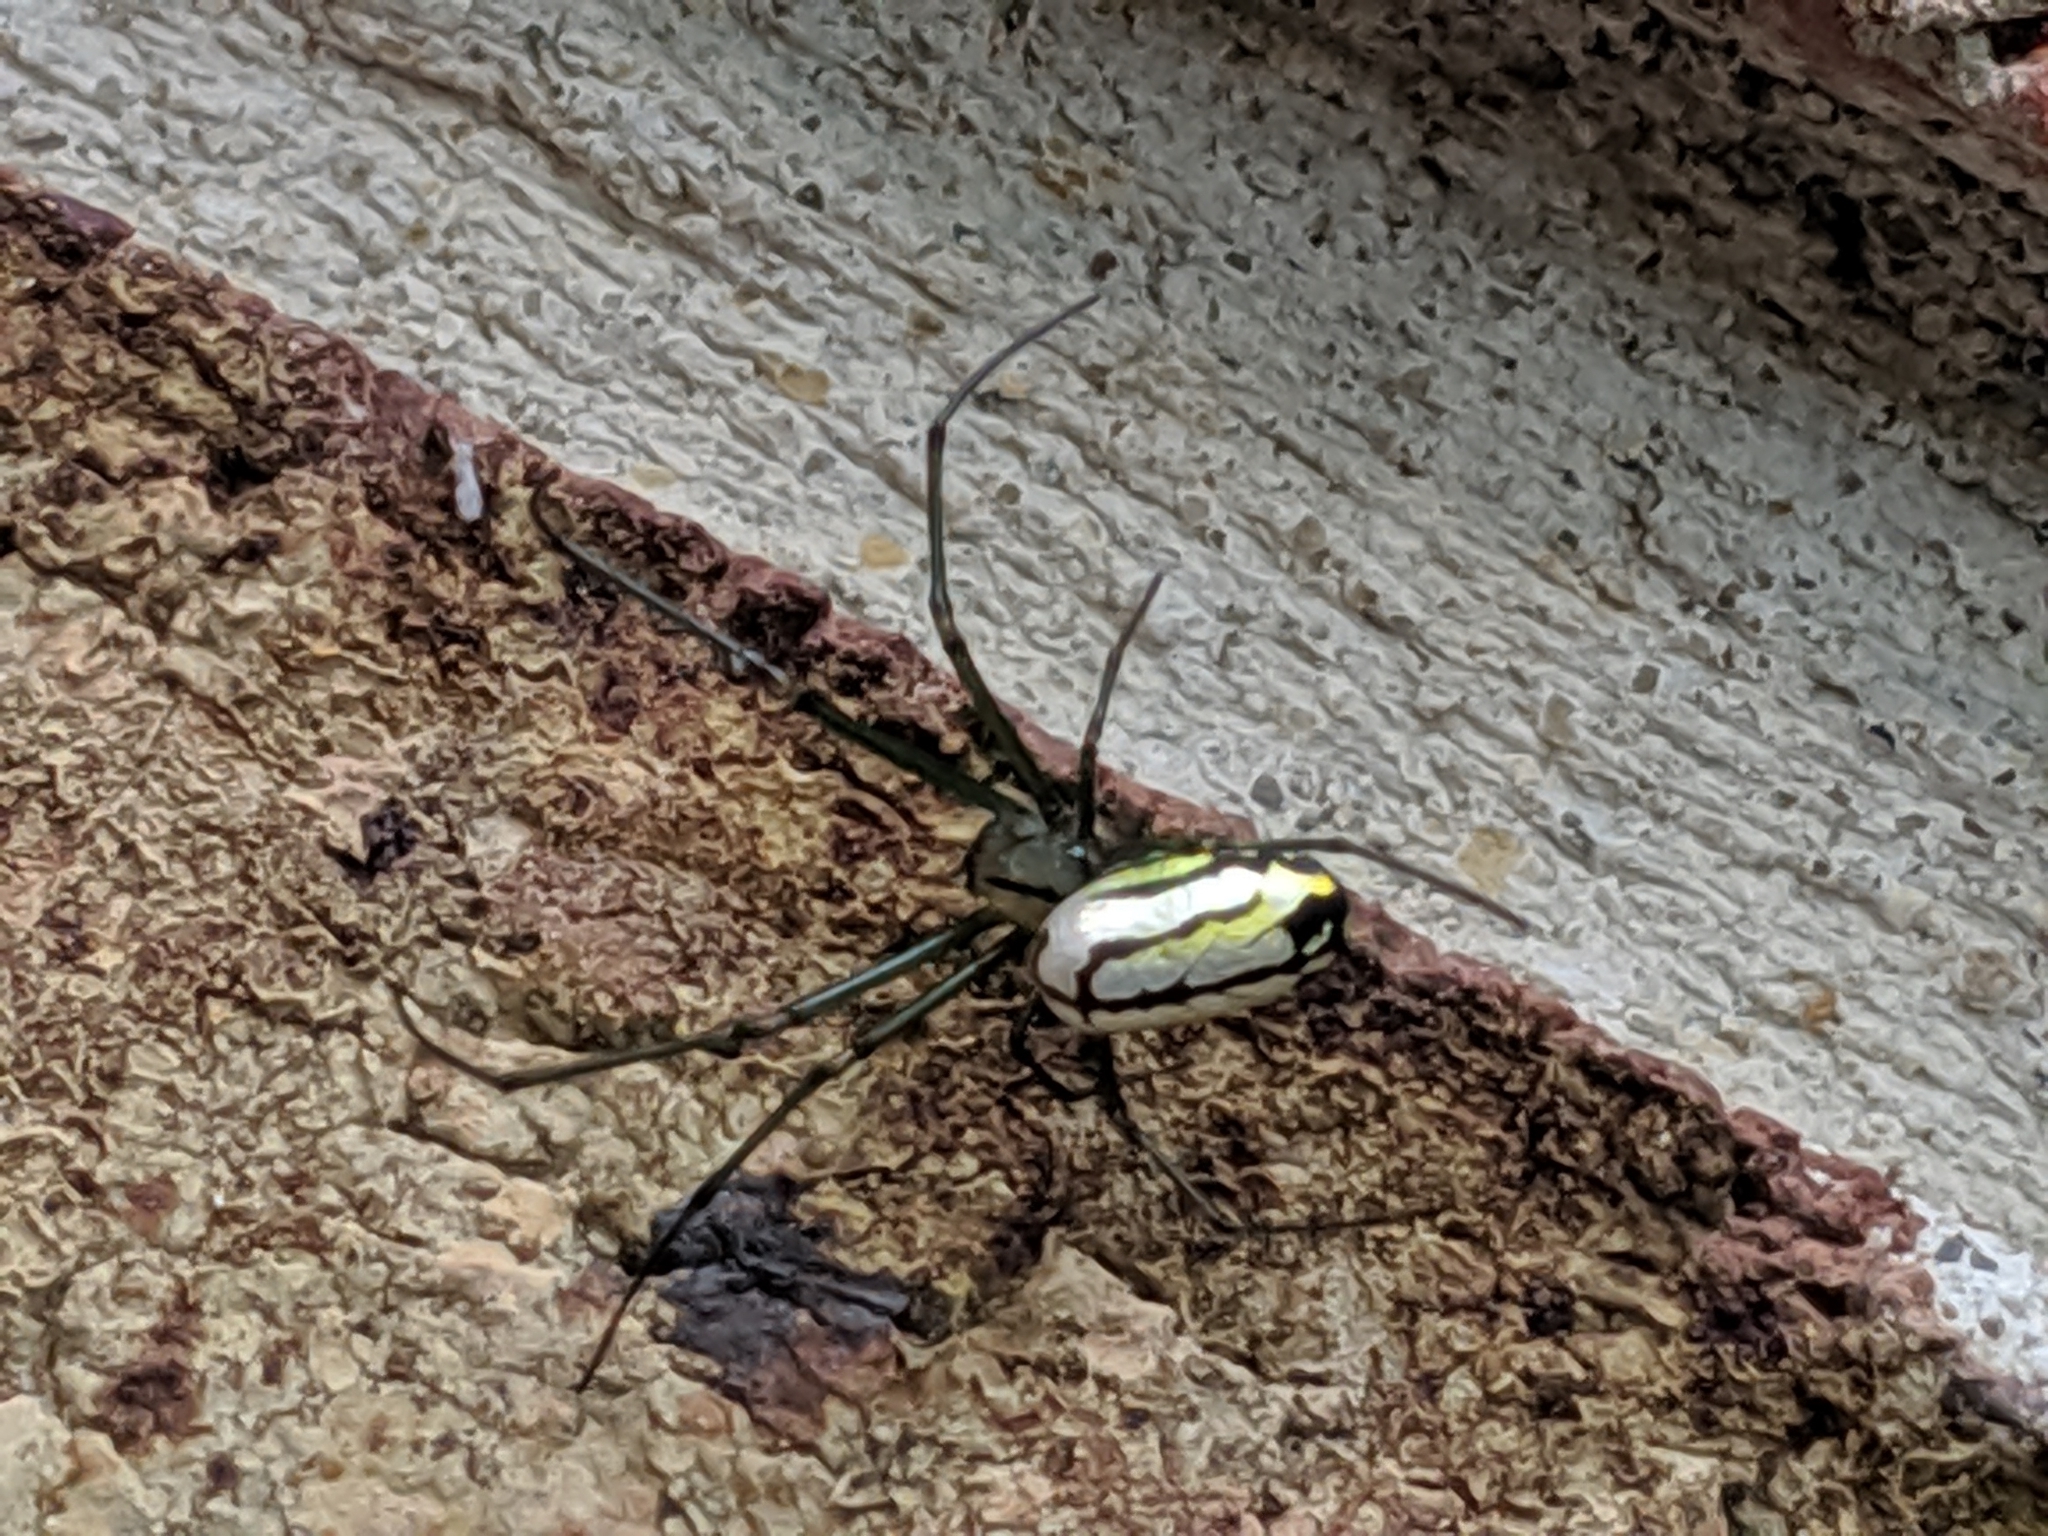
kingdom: Animalia
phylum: Arthropoda
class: Arachnida
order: Araneae
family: Tetragnathidae
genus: Leucauge
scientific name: Leucauge venusta
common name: Longjawed orb weavers
